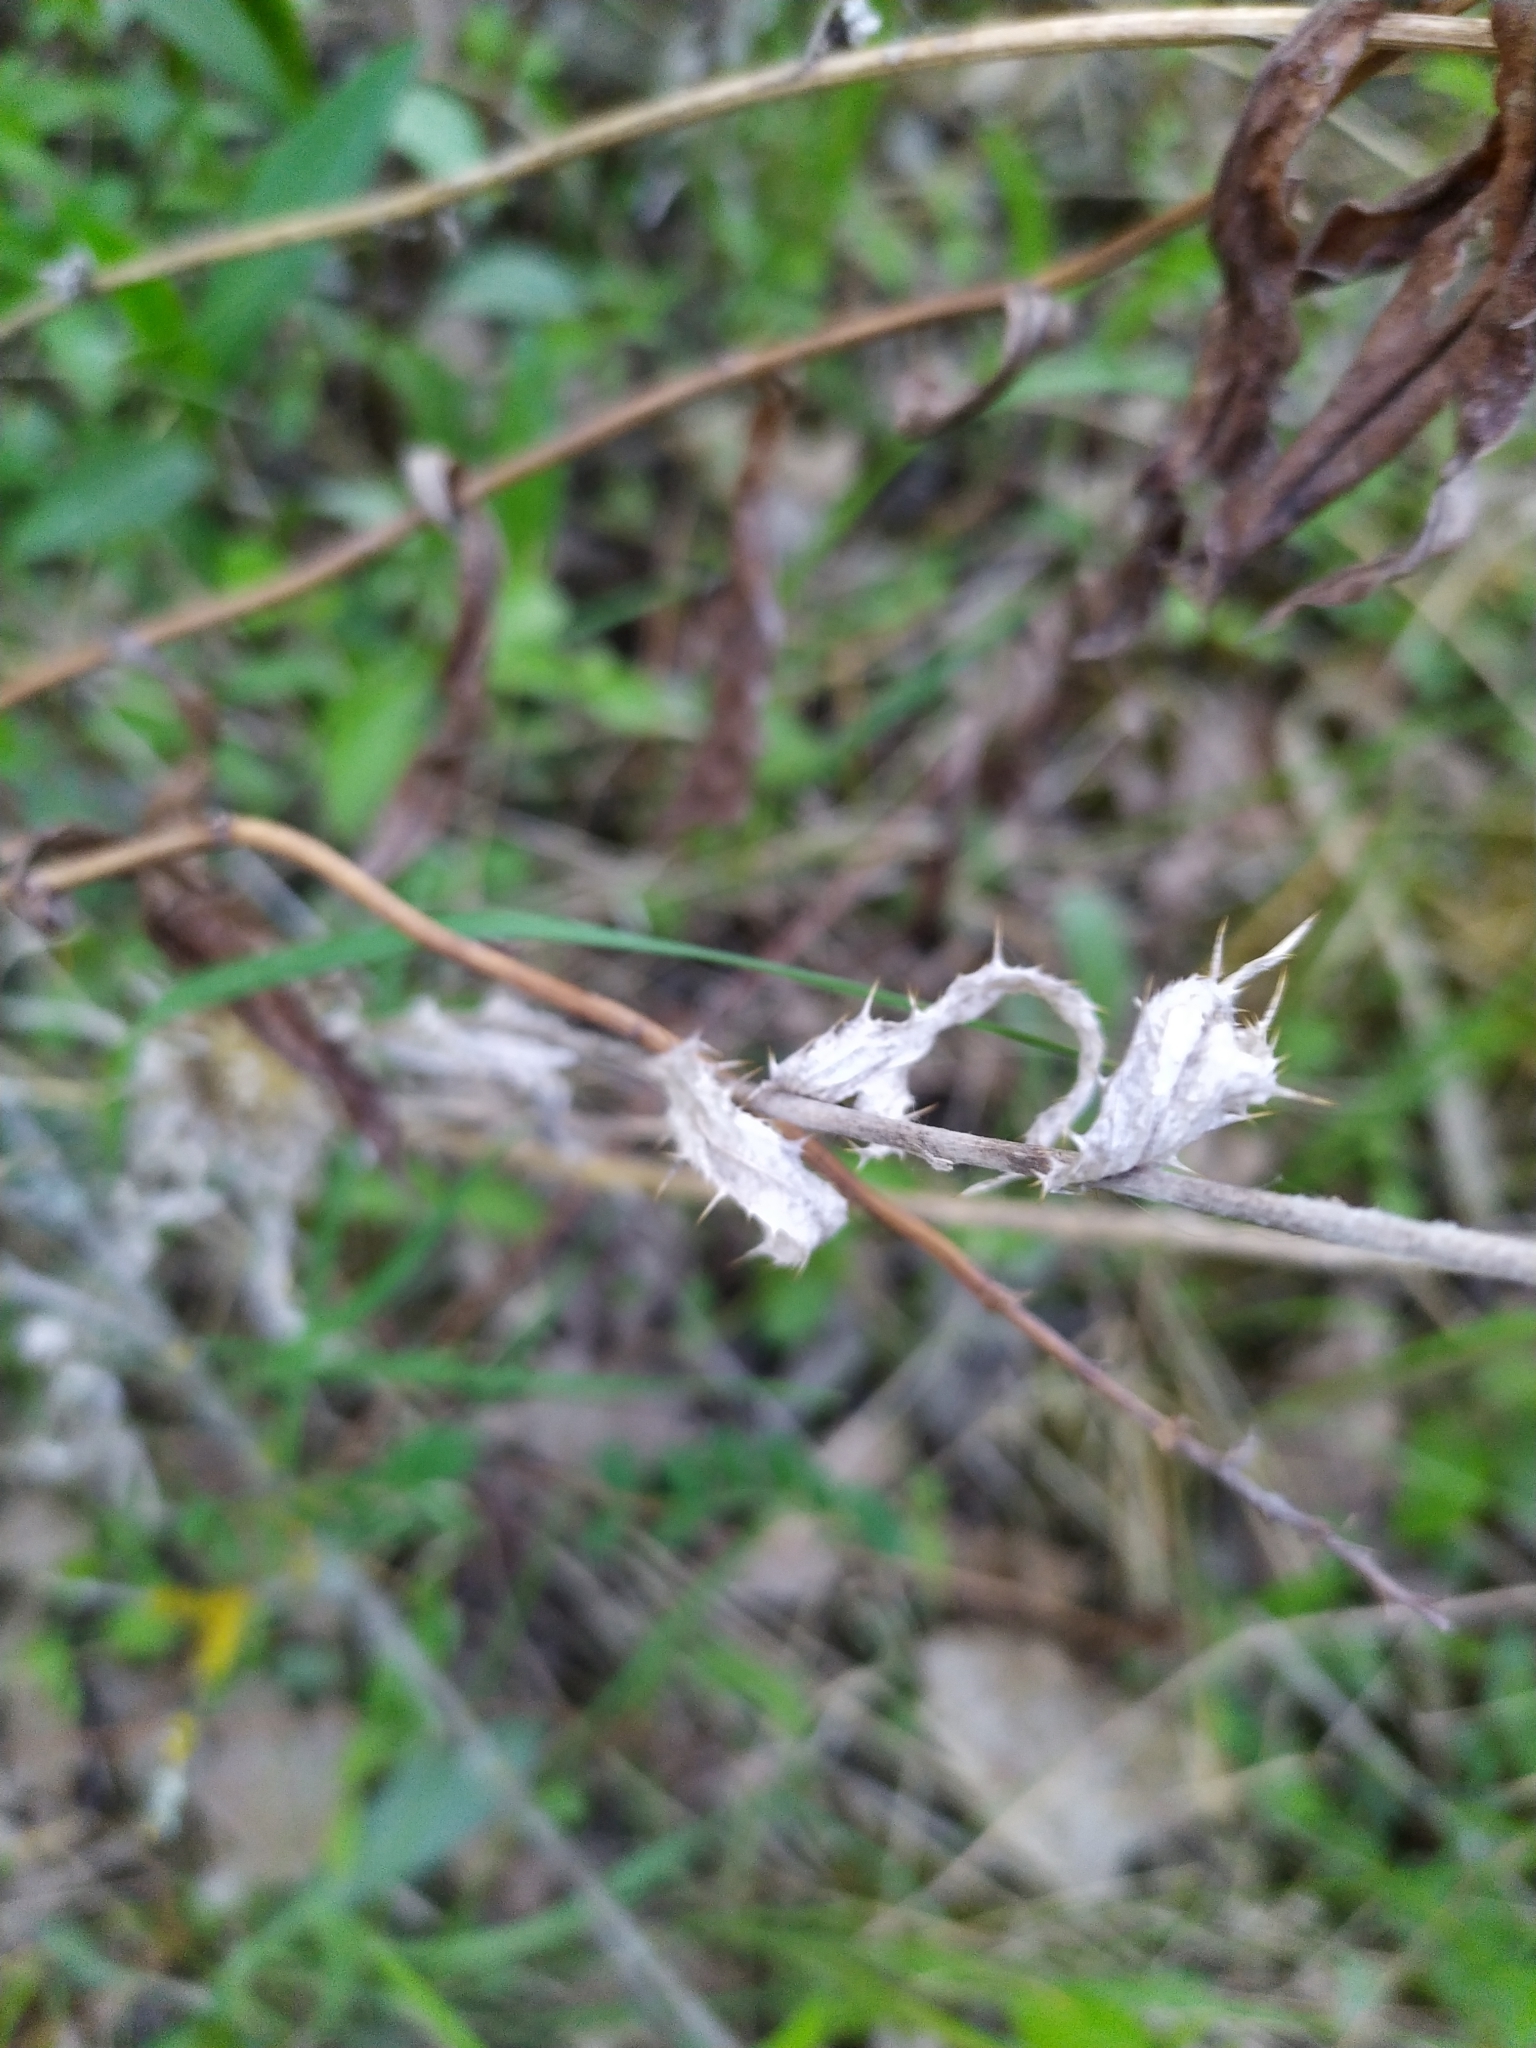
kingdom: Plantae
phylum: Tracheophyta
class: Magnoliopsida
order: Asterales
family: Asteraceae
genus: Carlina
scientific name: Carlina biebersteinii
